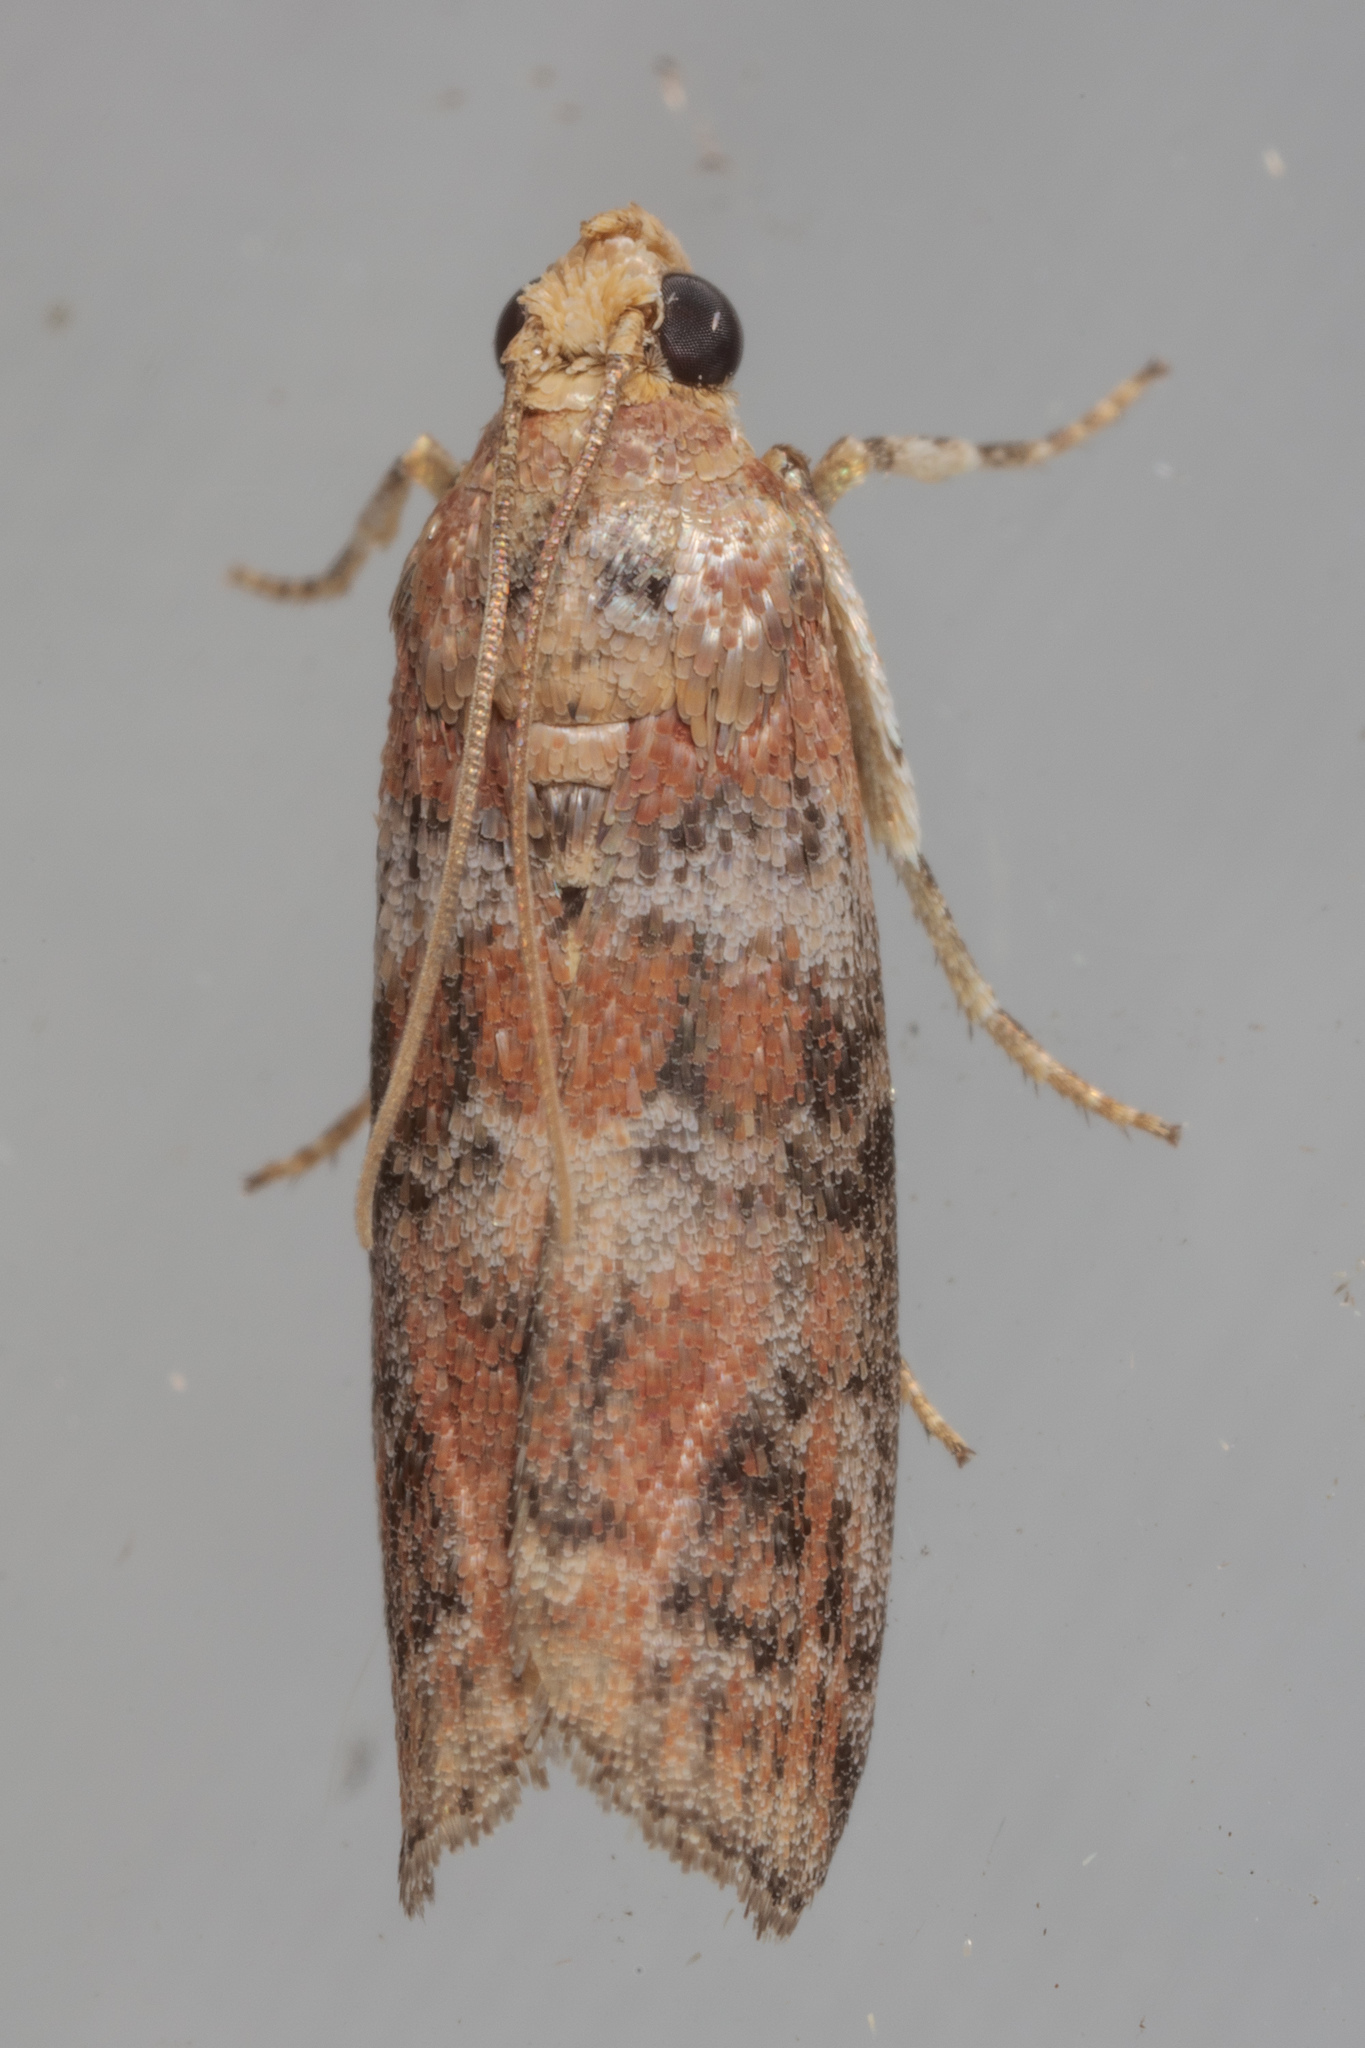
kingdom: Animalia
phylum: Arthropoda
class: Insecta
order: Lepidoptera
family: Pyralidae
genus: Sciota
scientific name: Sciota
